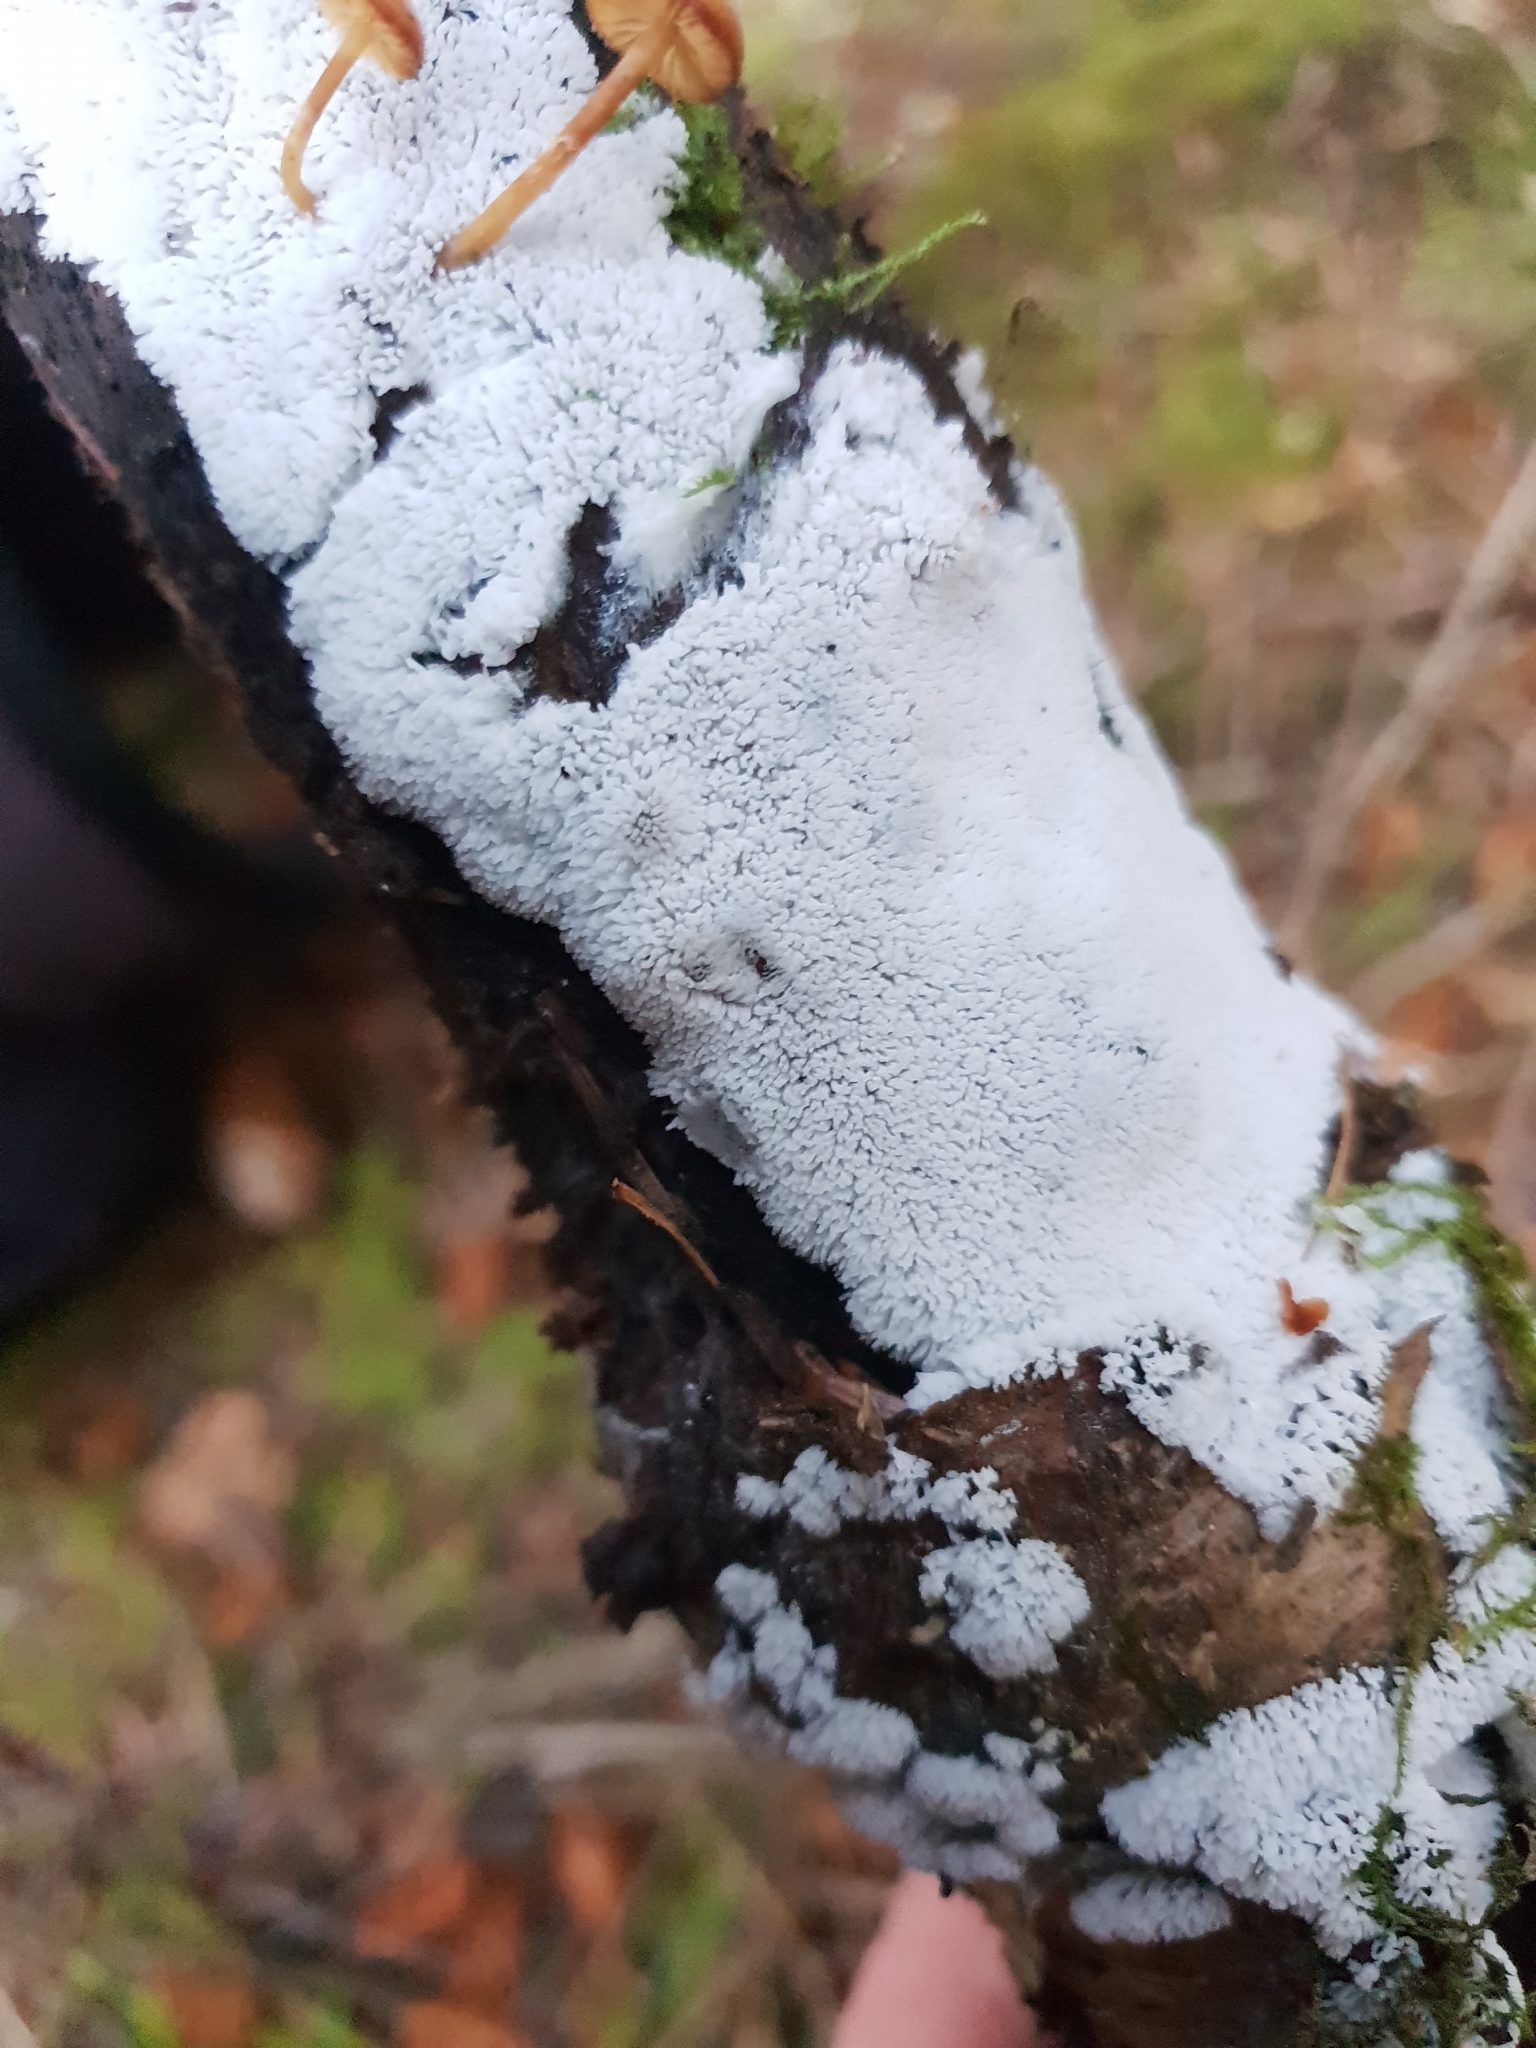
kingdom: Protozoa
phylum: Mycetozoa
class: Protosteliomycetes
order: Ceratiomyxales
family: Ceratiomyxaceae
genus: Ceratiomyxa
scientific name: Ceratiomyxa fruticulosa
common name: Honeycomb coral slime mold
